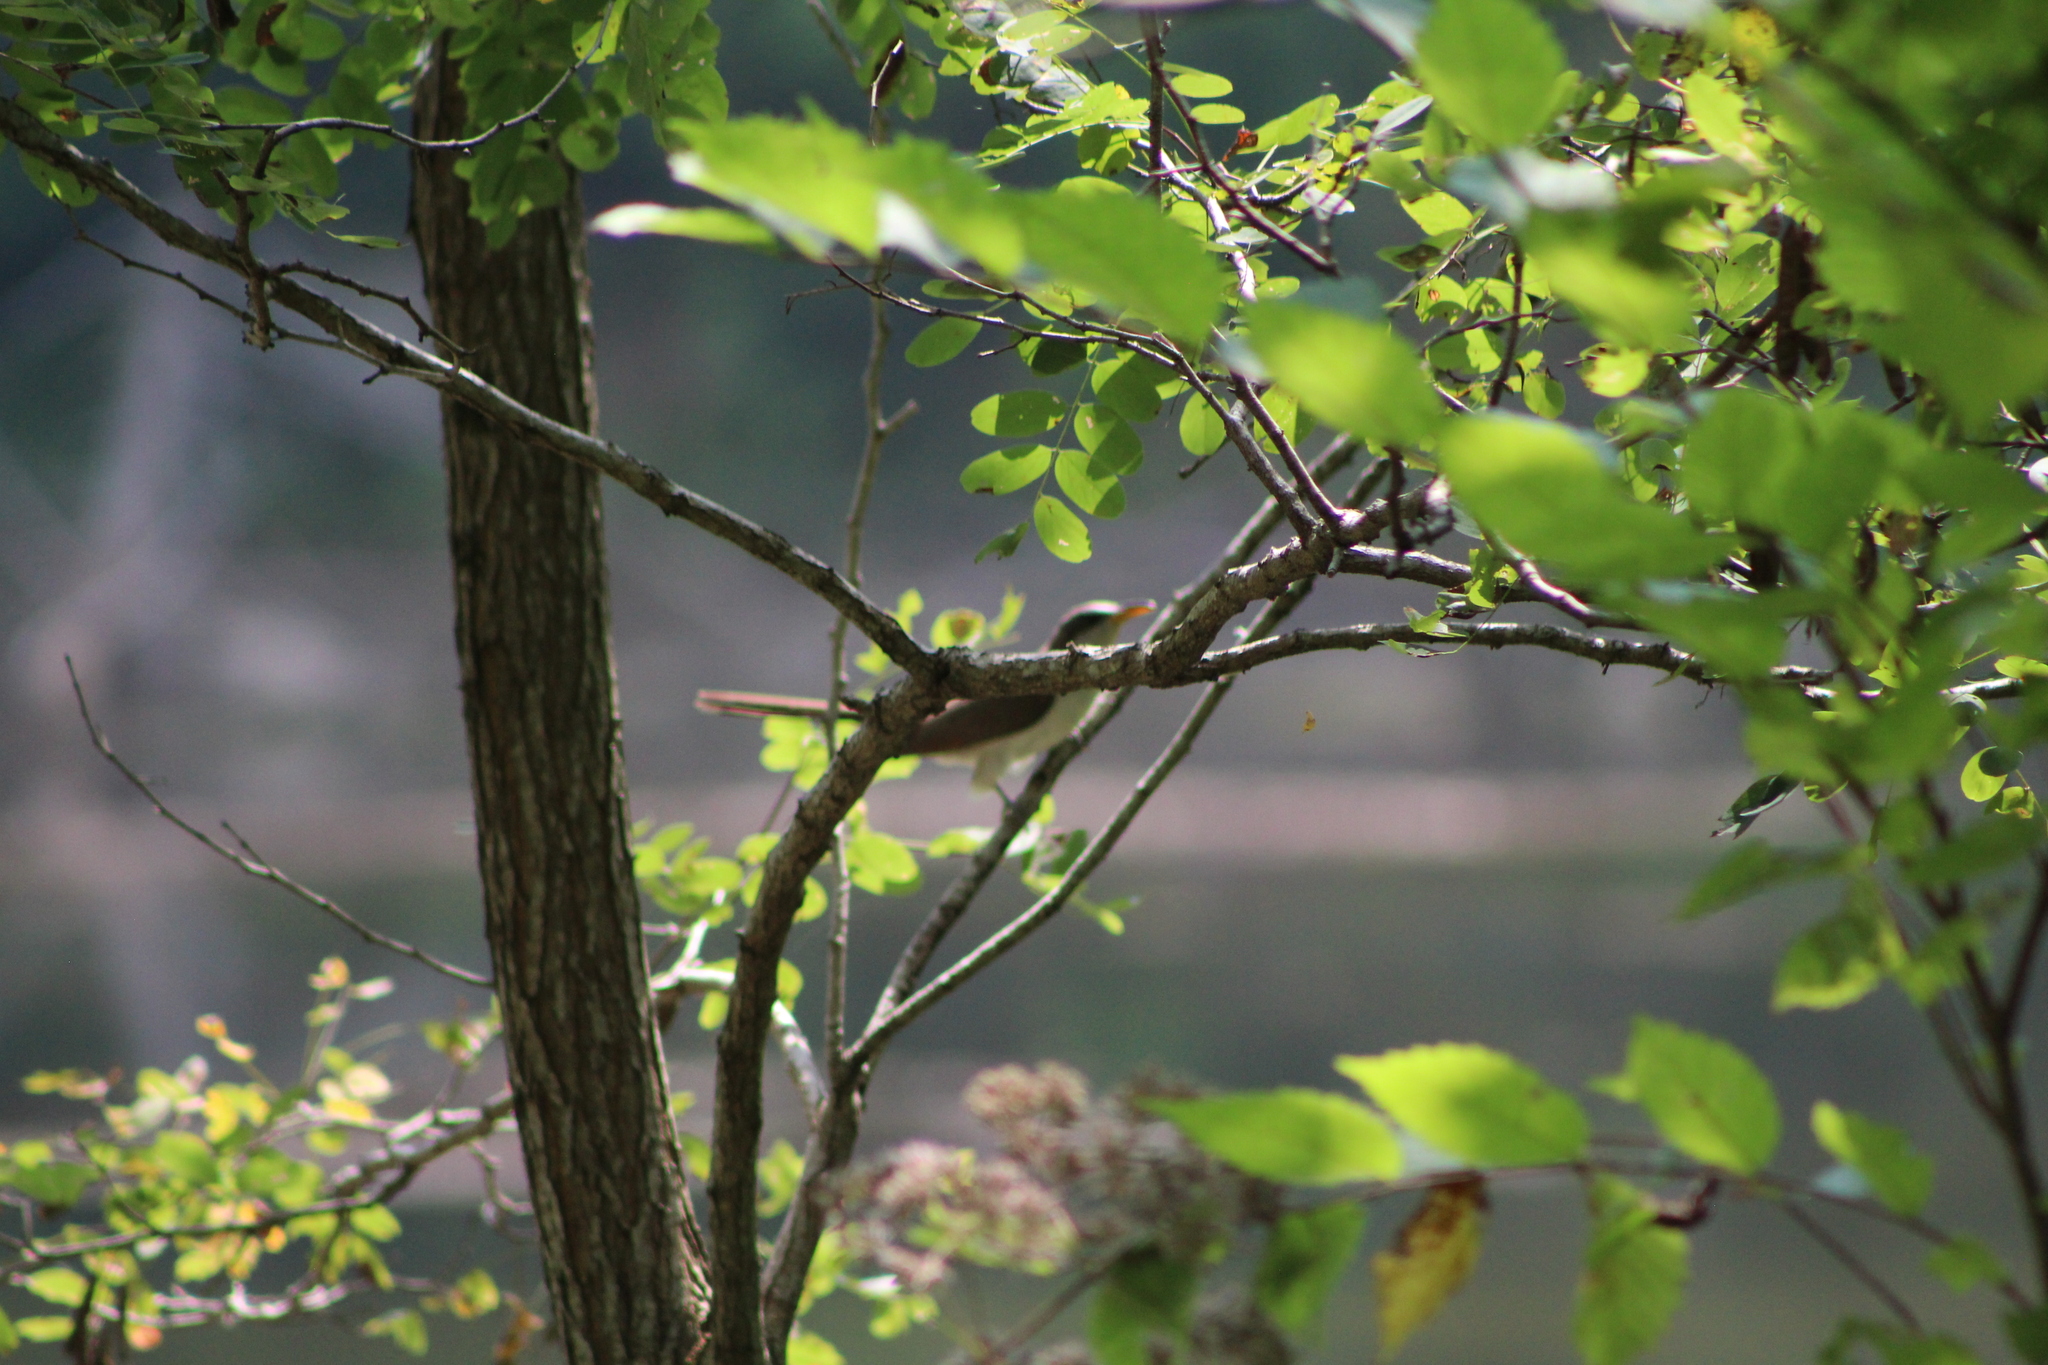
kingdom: Animalia
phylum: Chordata
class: Aves
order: Cuculiformes
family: Cuculidae
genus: Coccyzus
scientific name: Coccyzus americanus
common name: Yellow-billed cuckoo
